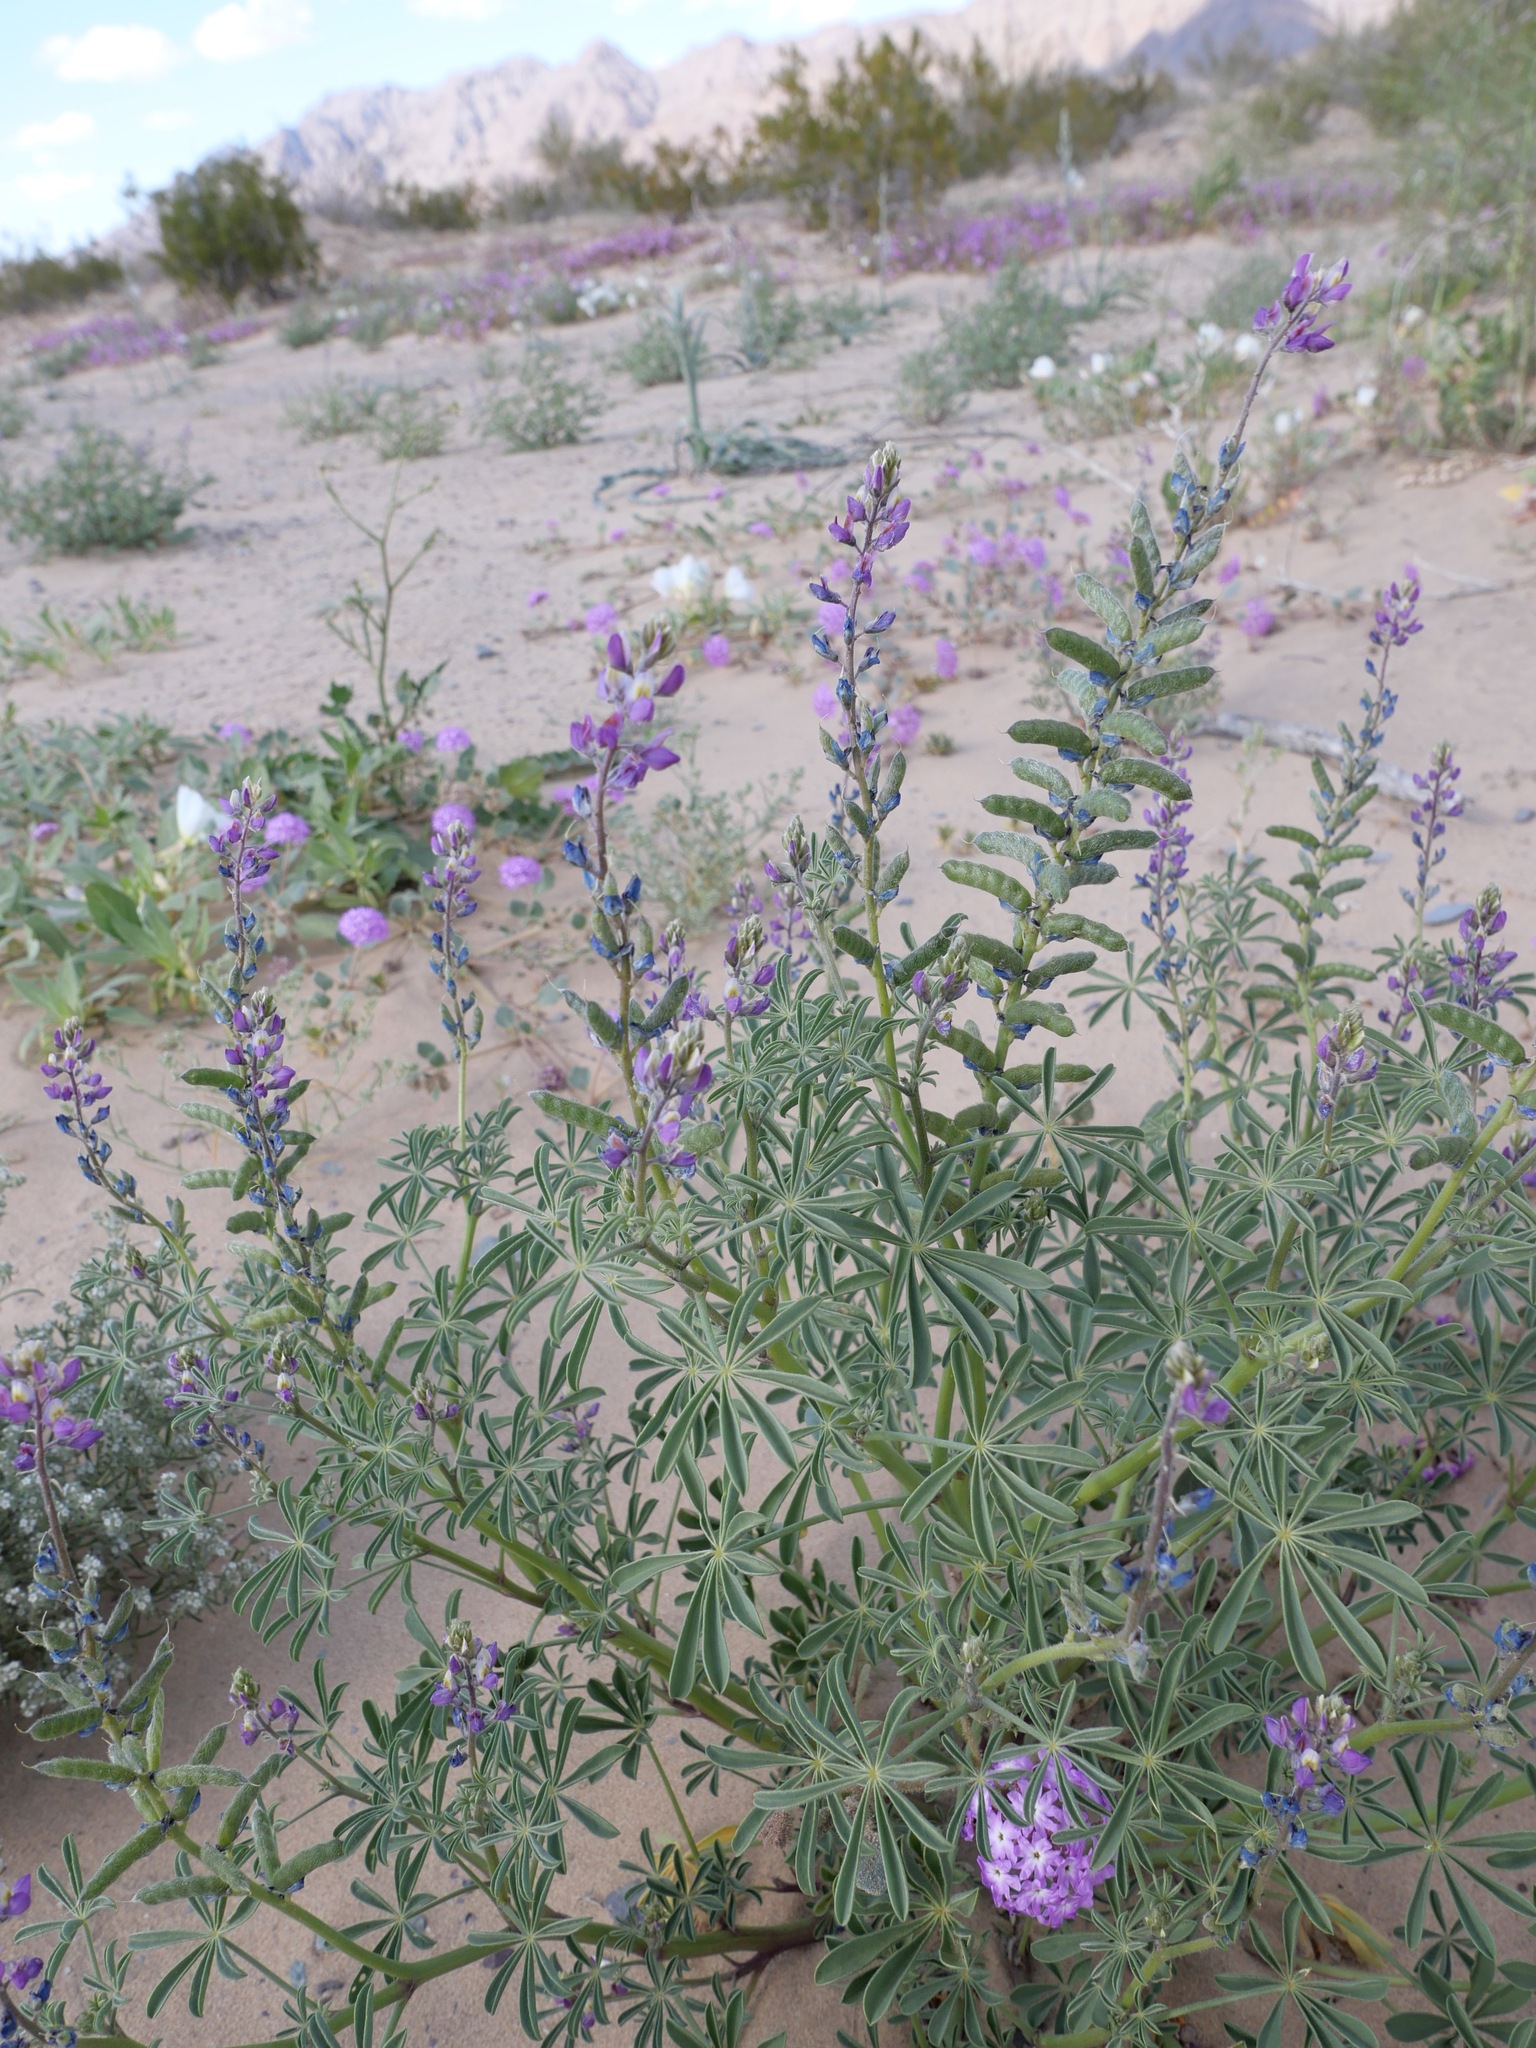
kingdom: Plantae
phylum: Tracheophyta
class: Magnoliopsida
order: Fabales
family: Fabaceae
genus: Lupinus
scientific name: Lupinus arizonicus
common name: Arizona lupine
